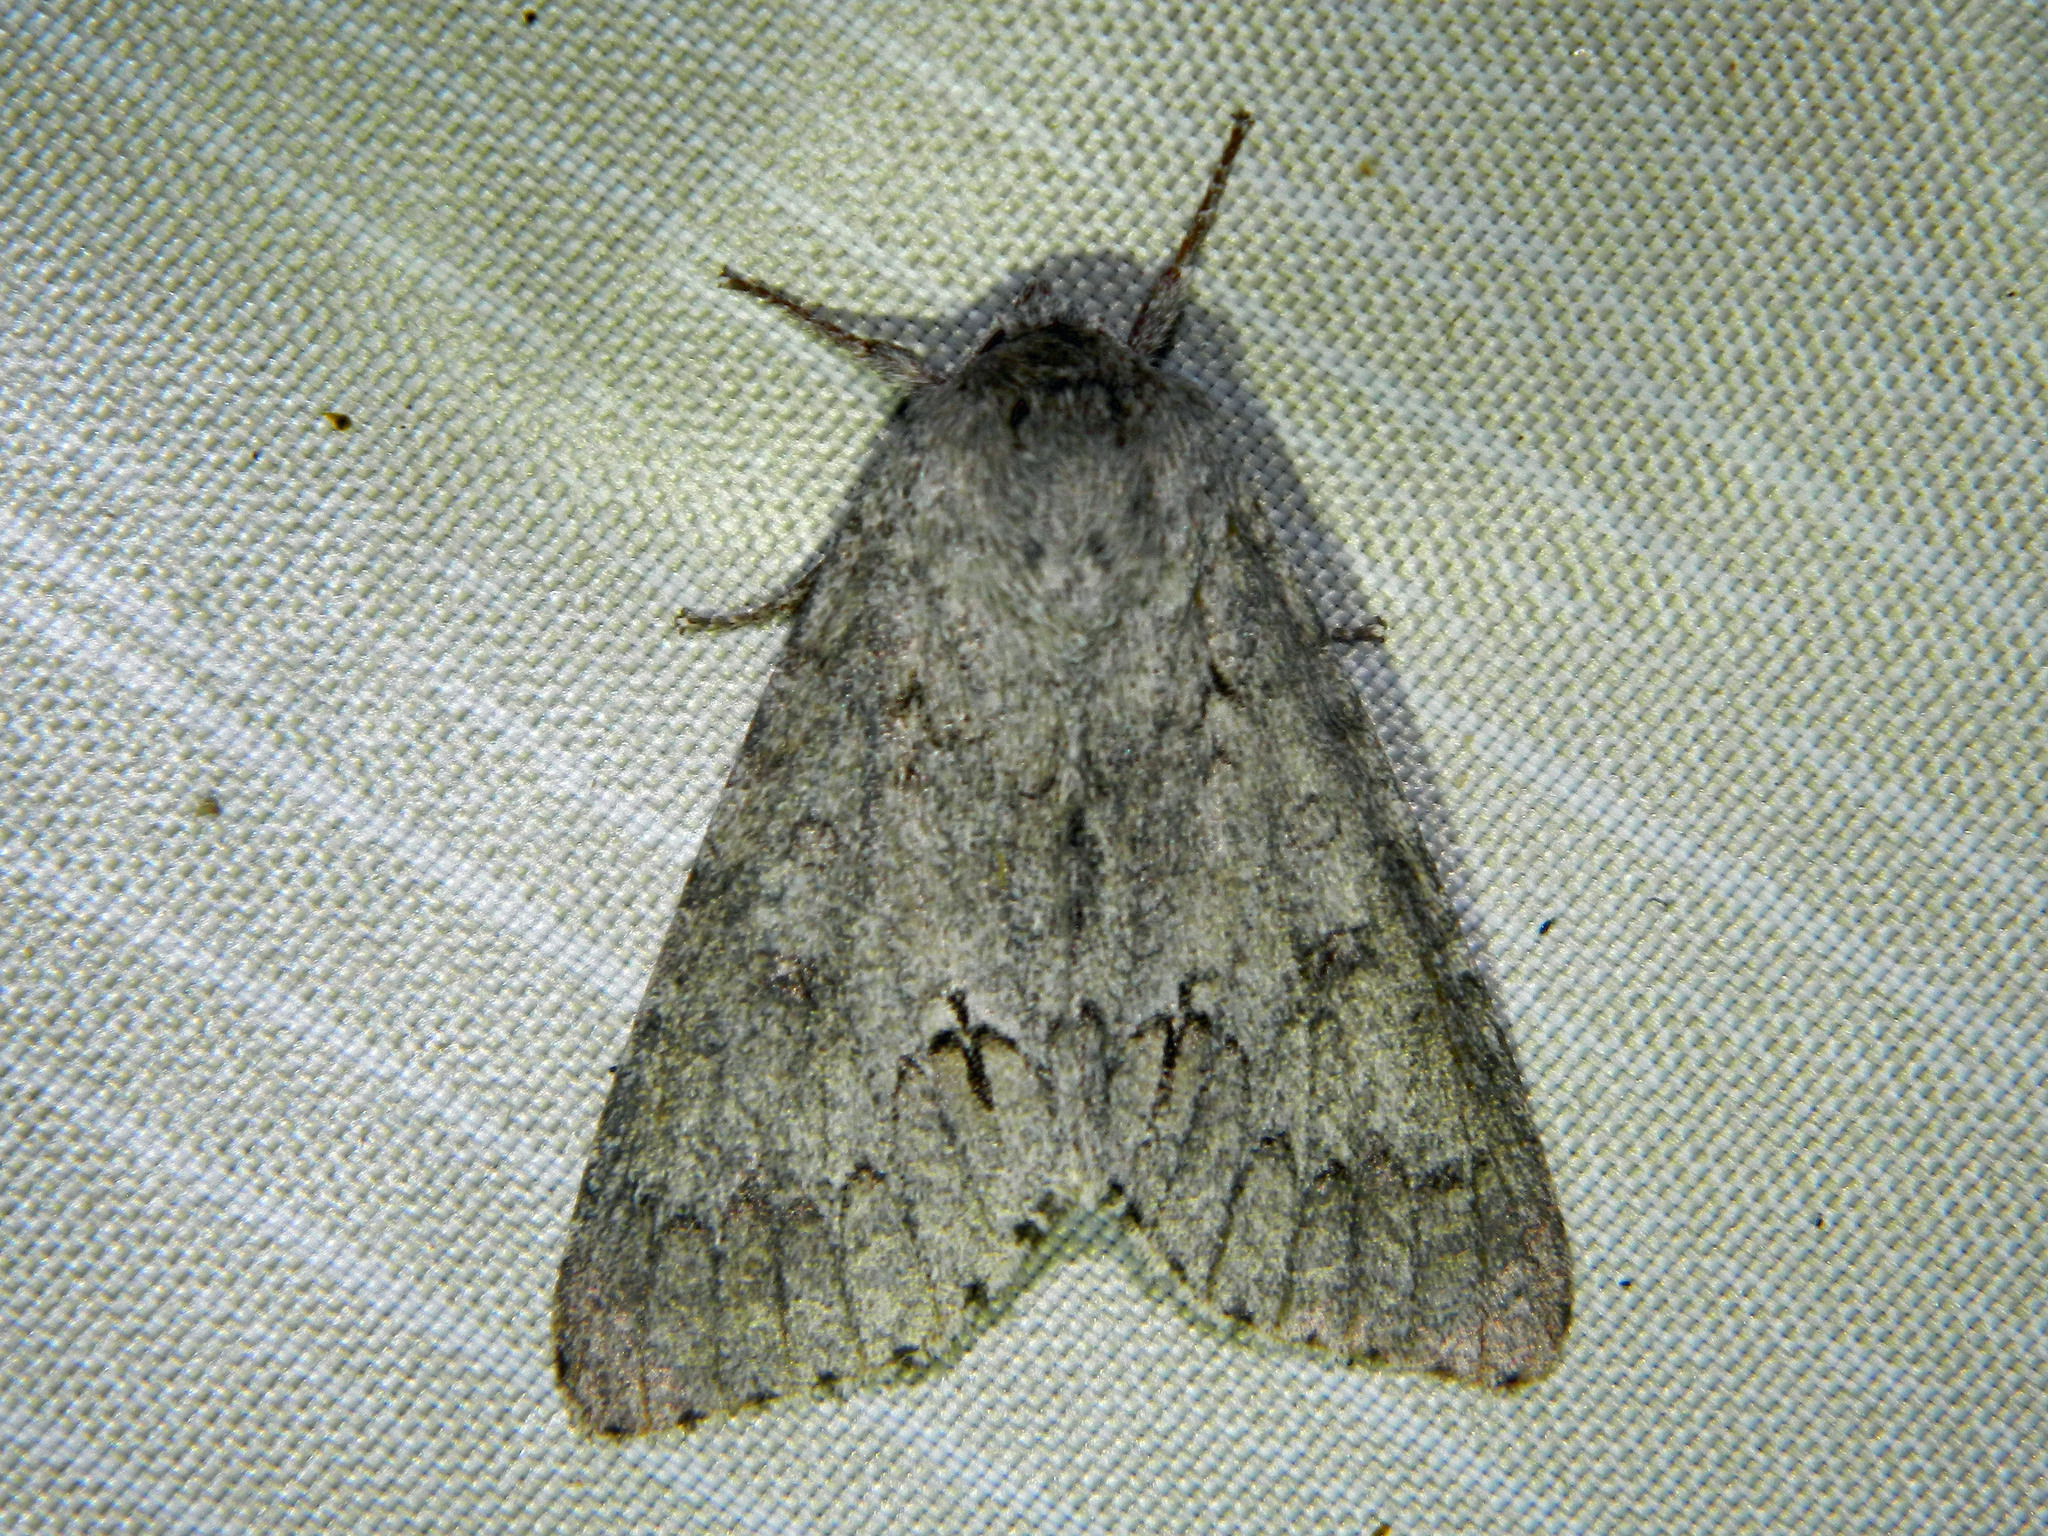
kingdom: Animalia
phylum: Arthropoda
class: Insecta
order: Lepidoptera
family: Noctuidae
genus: Acronicta
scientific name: Acronicta insita
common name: Large gray dagger
